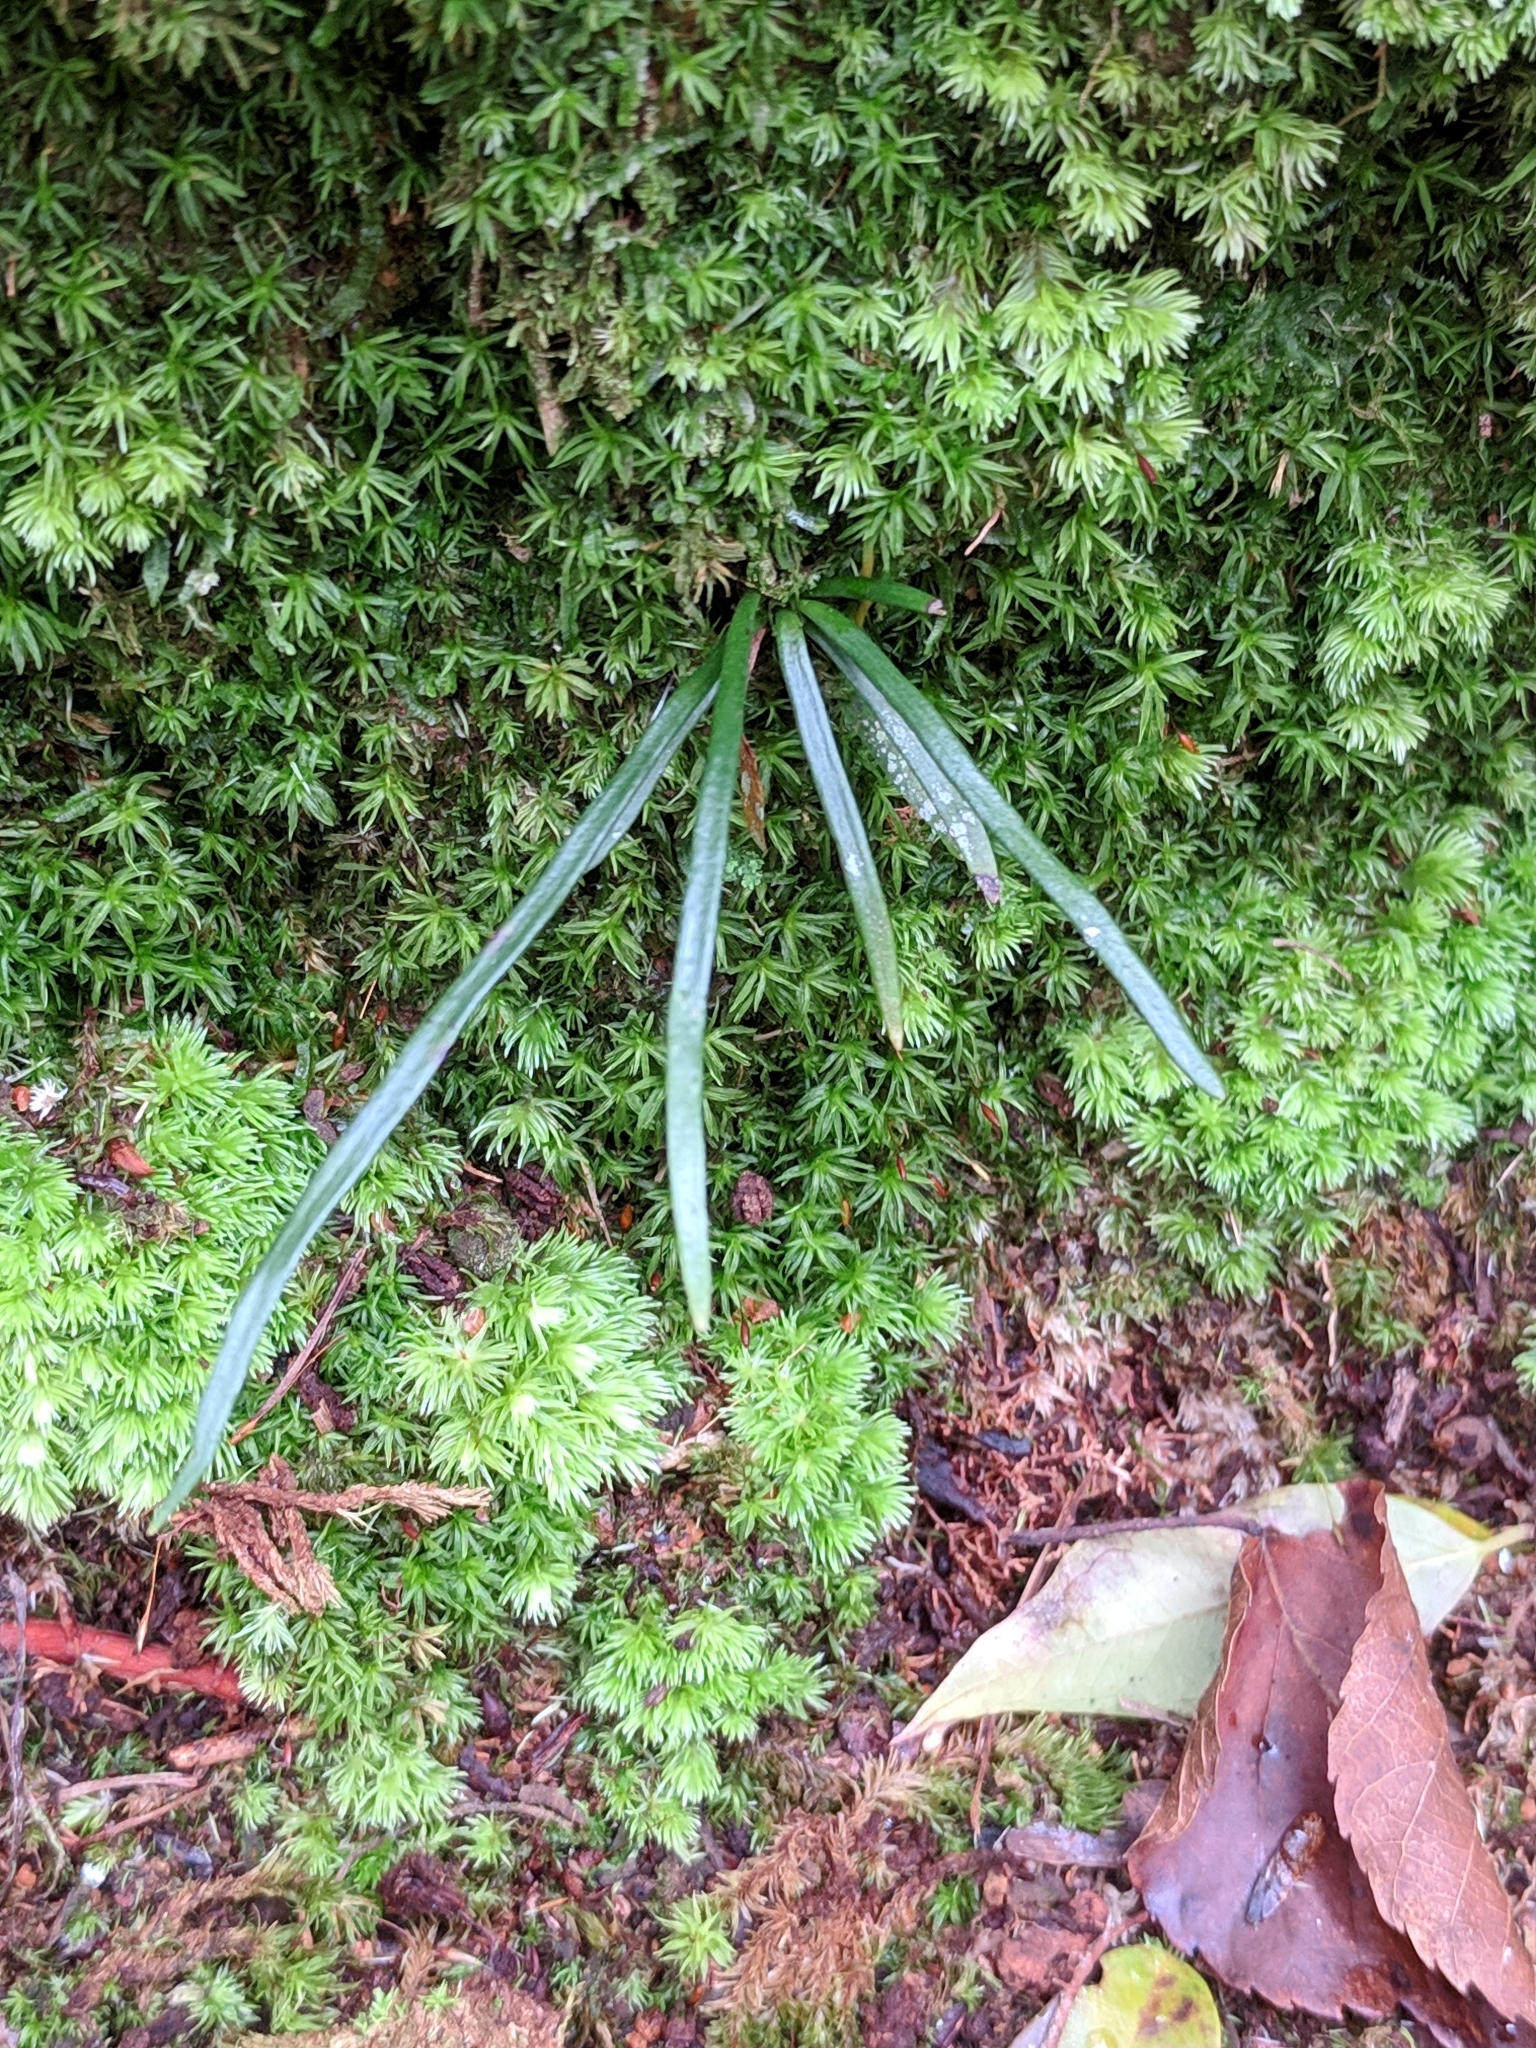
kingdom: Plantae
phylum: Tracheophyta
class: Polypodiopsida
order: Polypodiales
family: Pteridaceae
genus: Vittaria
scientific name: Vittaria lineata
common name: Shoestring fern
